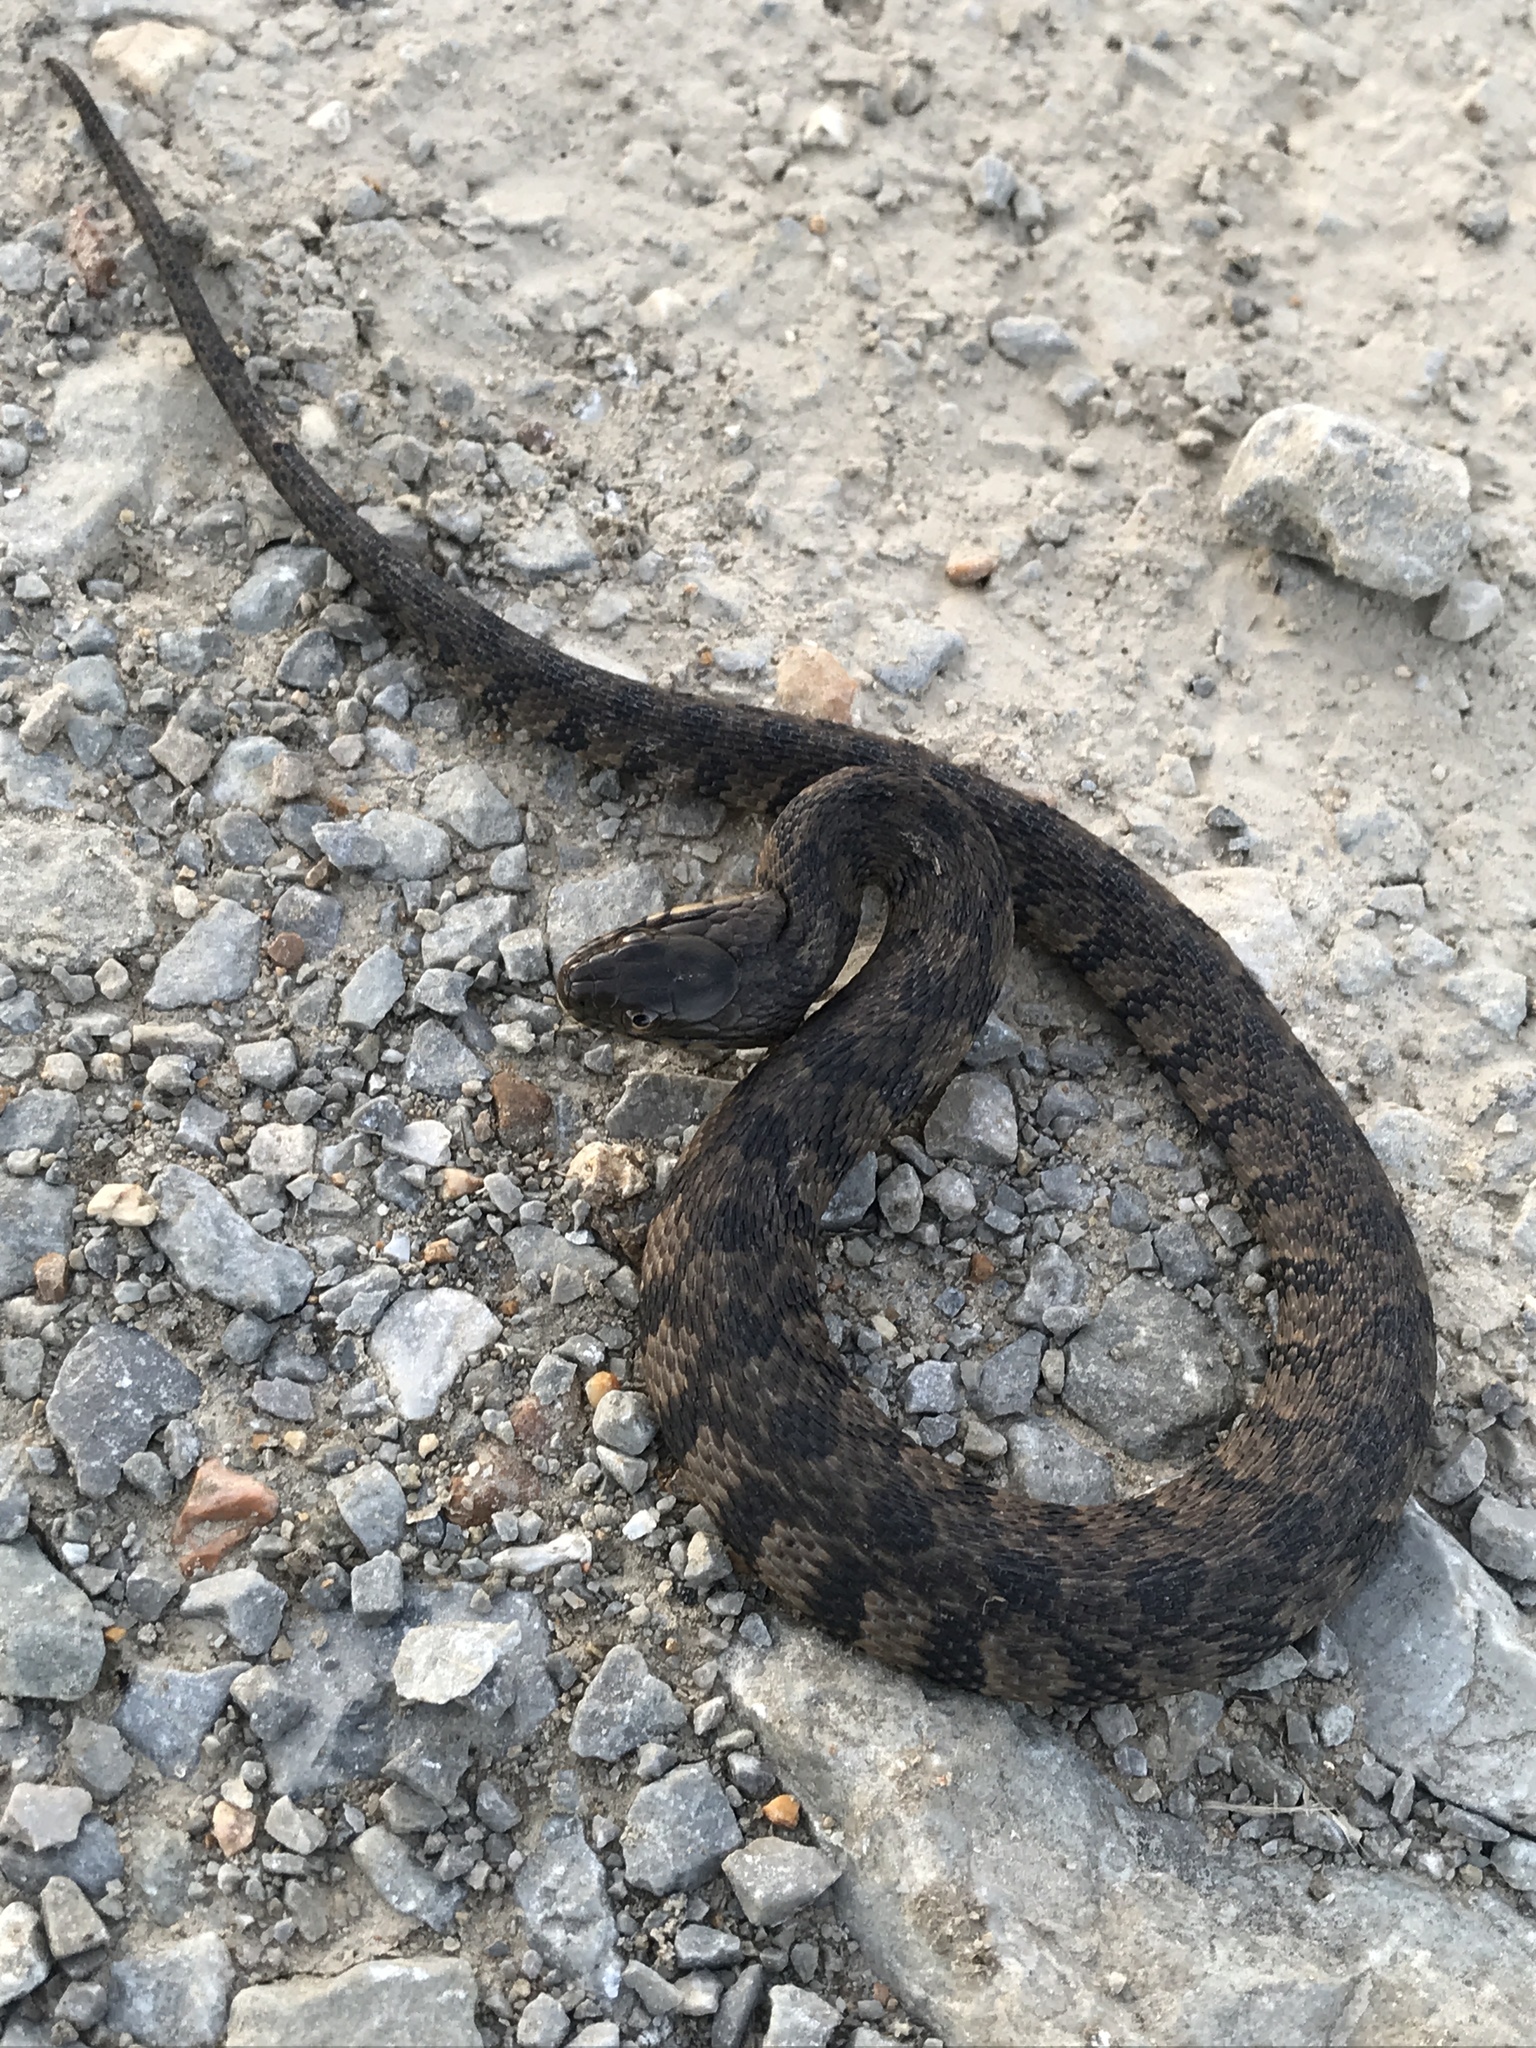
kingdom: Animalia
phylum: Chordata
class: Squamata
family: Colubridae
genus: Nerodia
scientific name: Nerodia rhombifer
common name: Diamondback water snake
